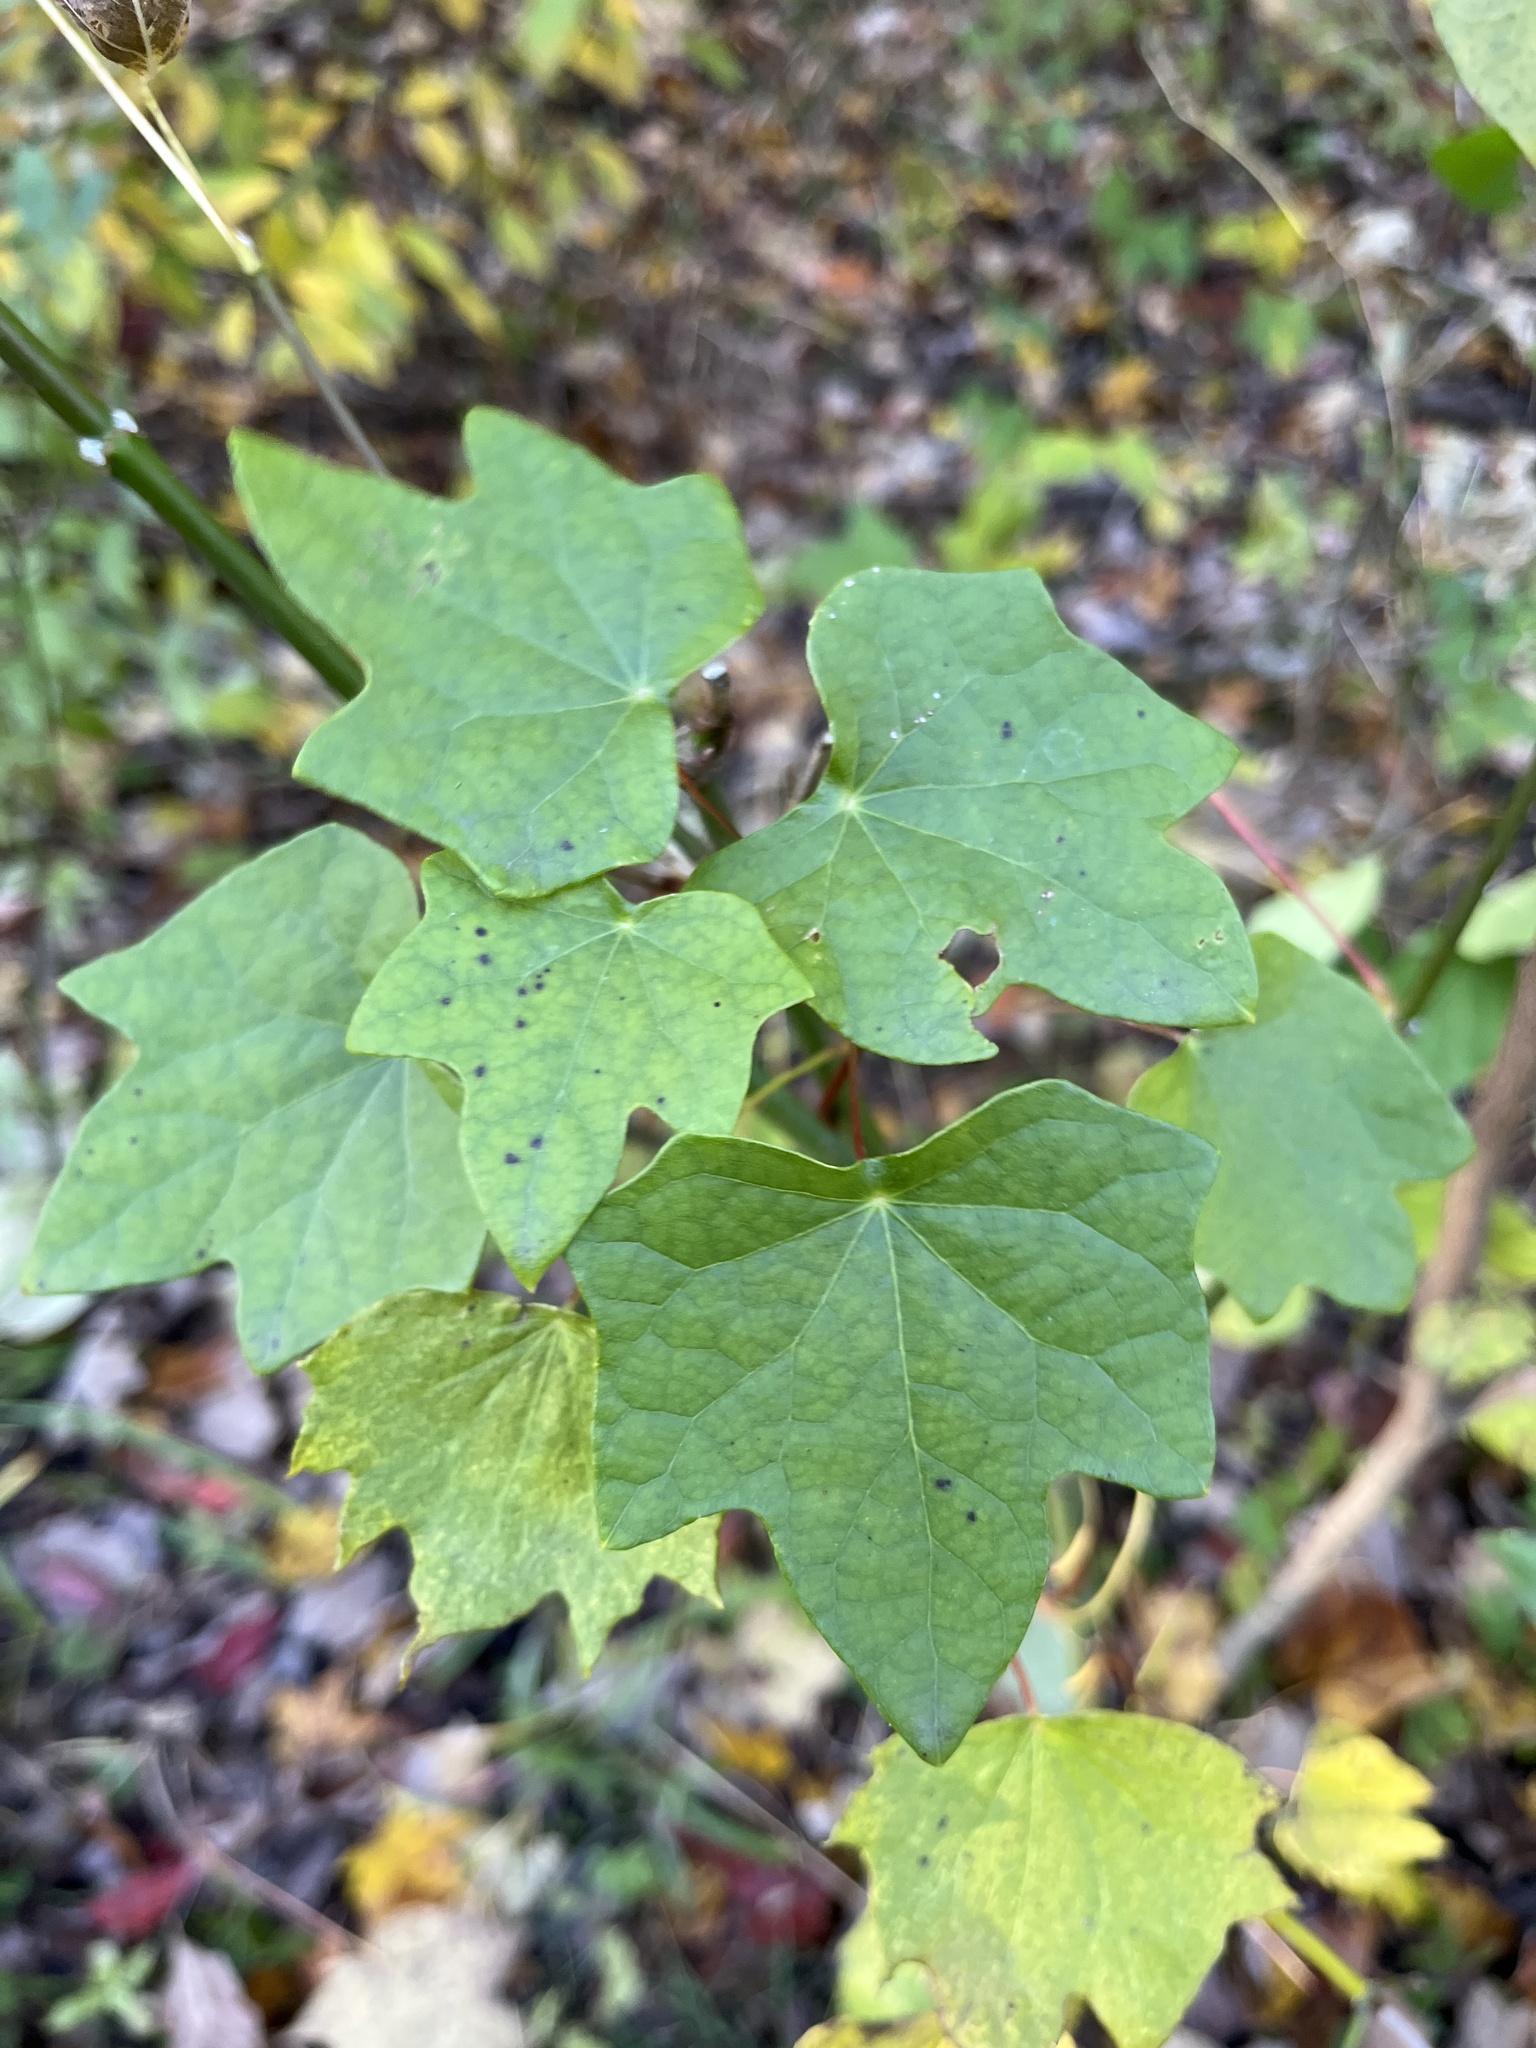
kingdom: Plantae
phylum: Tracheophyta
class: Magnoliopsida
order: Ranunculales
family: Menispermaceae
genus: Menispermum
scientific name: Menispermum canadense
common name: Moonseed
